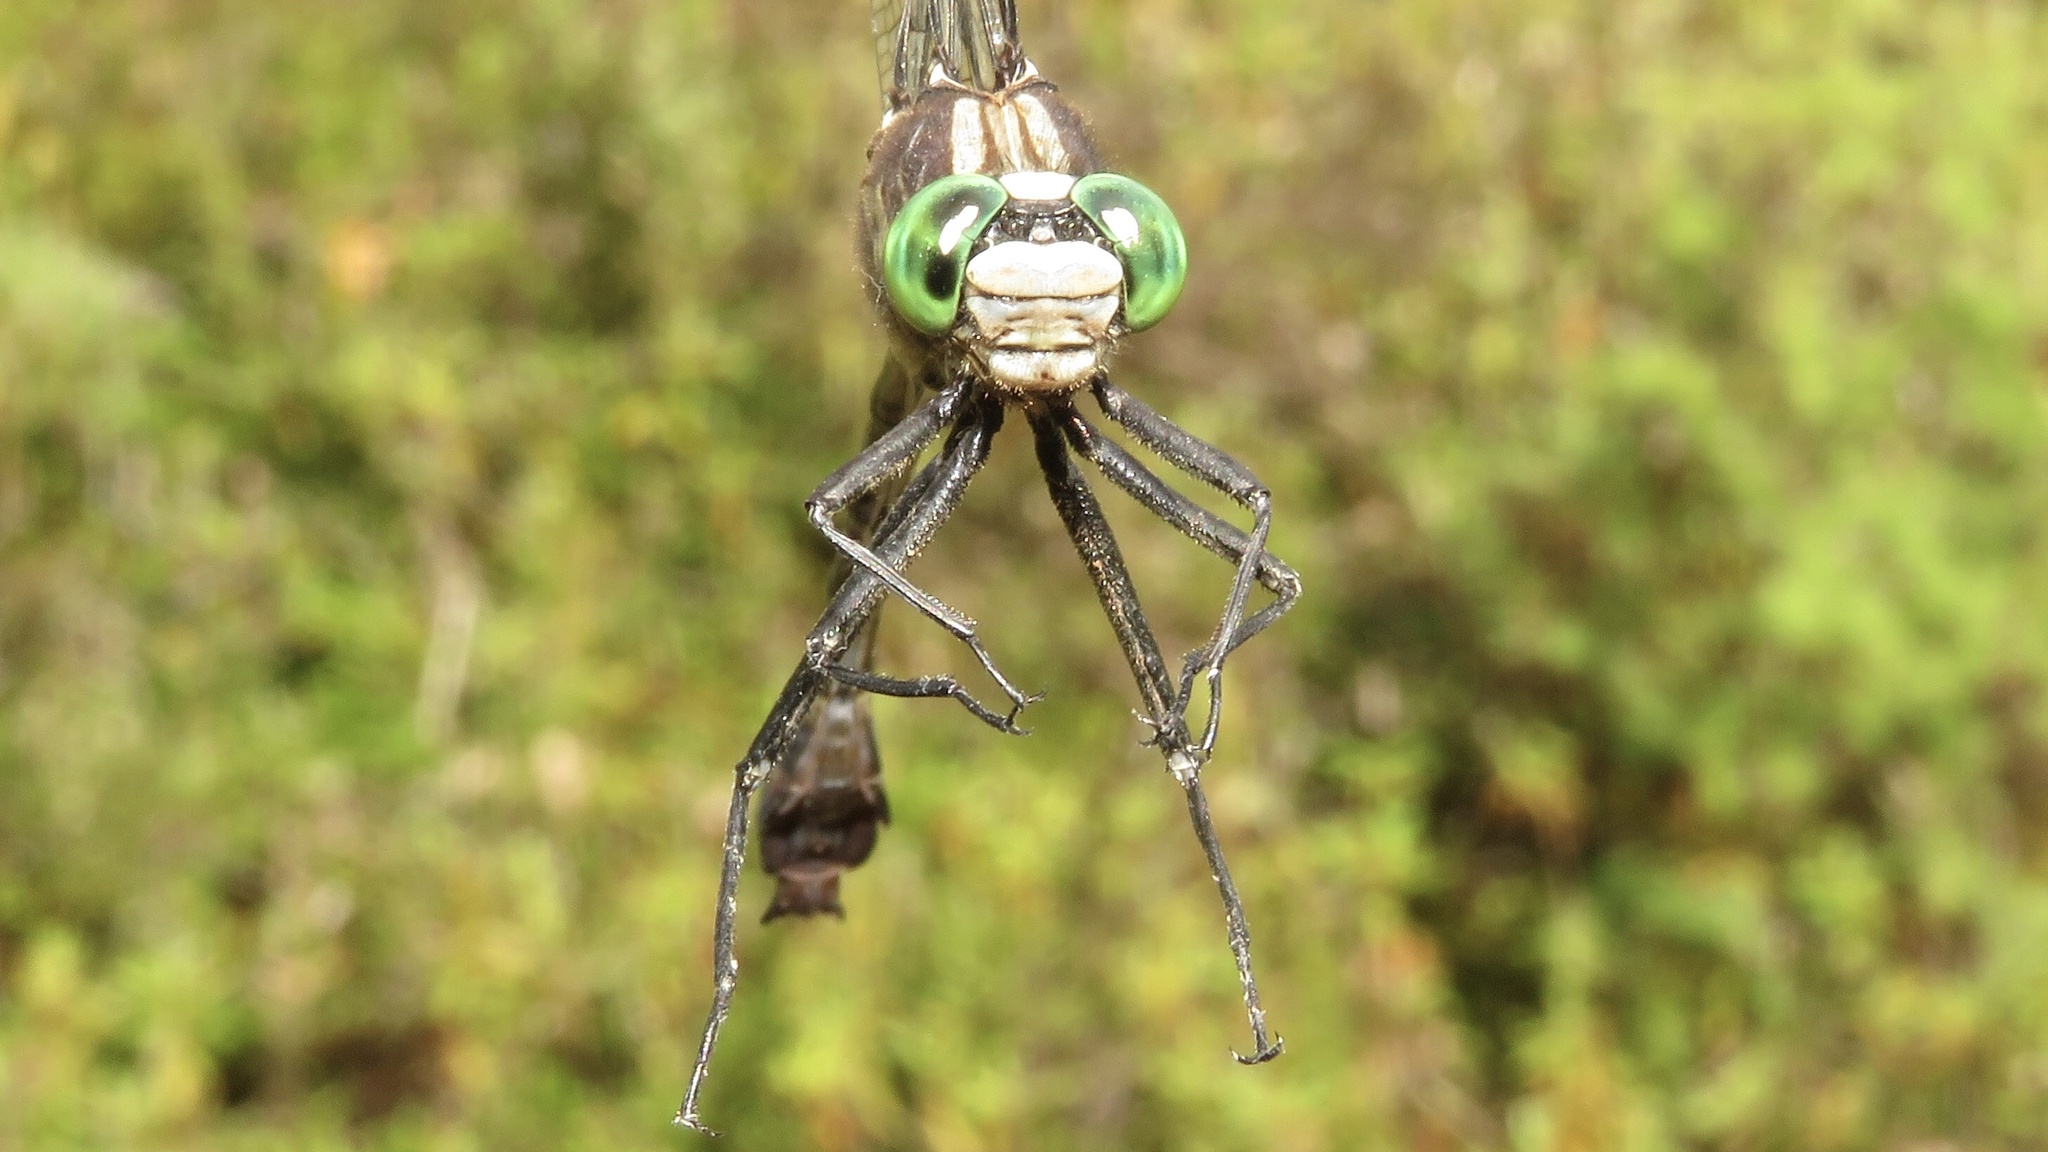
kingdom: Animalia
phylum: Arthropoda
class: Insecta
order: Odonata
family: Gomphidae
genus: Dromogomphus
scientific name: Dromogomphus spinosus
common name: Black-shouldered spinyleg
